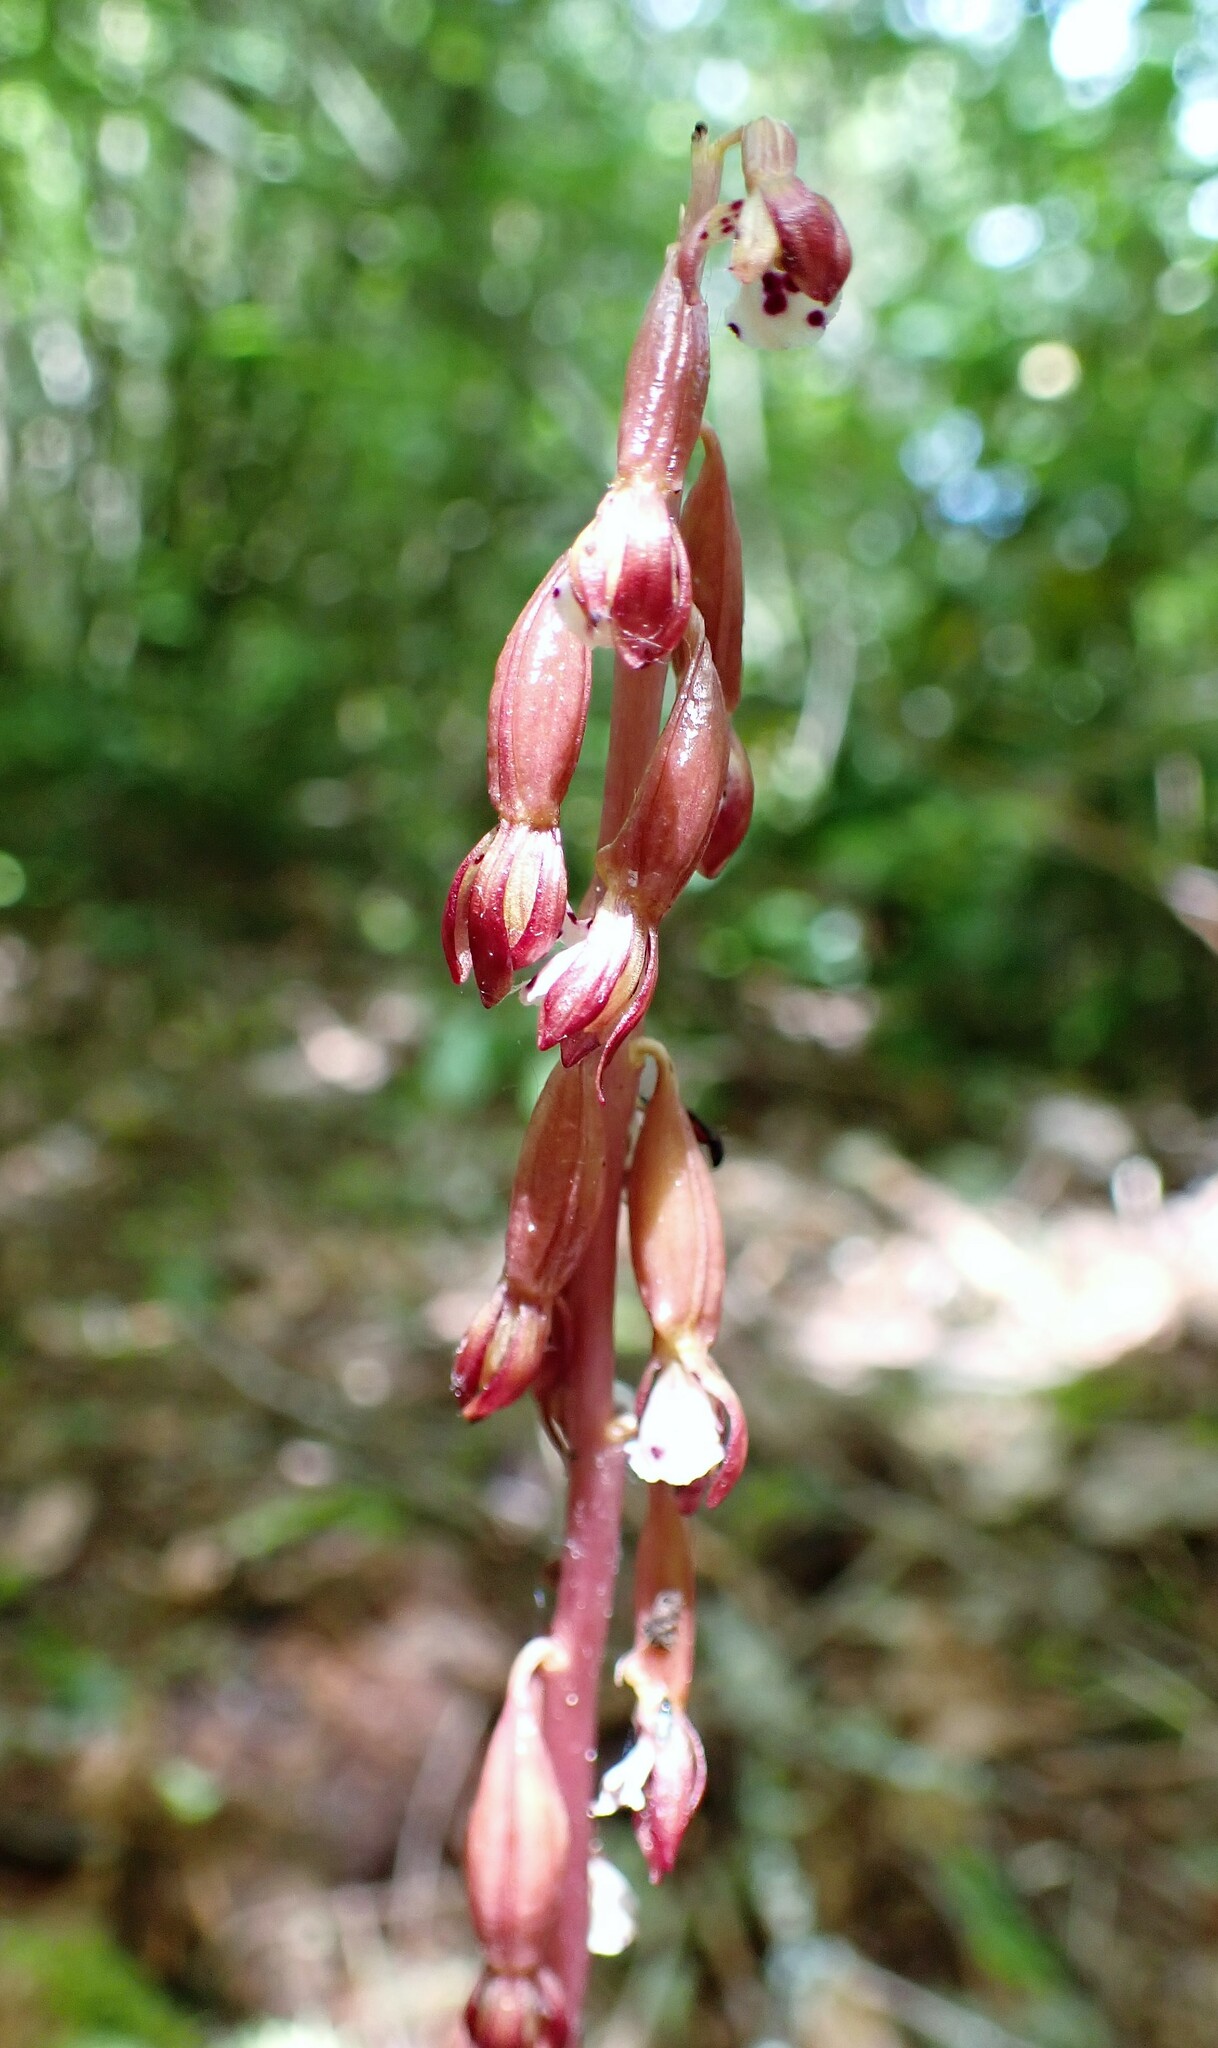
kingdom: Plantae
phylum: Tracheophyta
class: Liliopsida
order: Asparagales
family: Orchidaceae
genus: Corallorhiza
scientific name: Corallorhiza maculata
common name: Spotted coralroot
